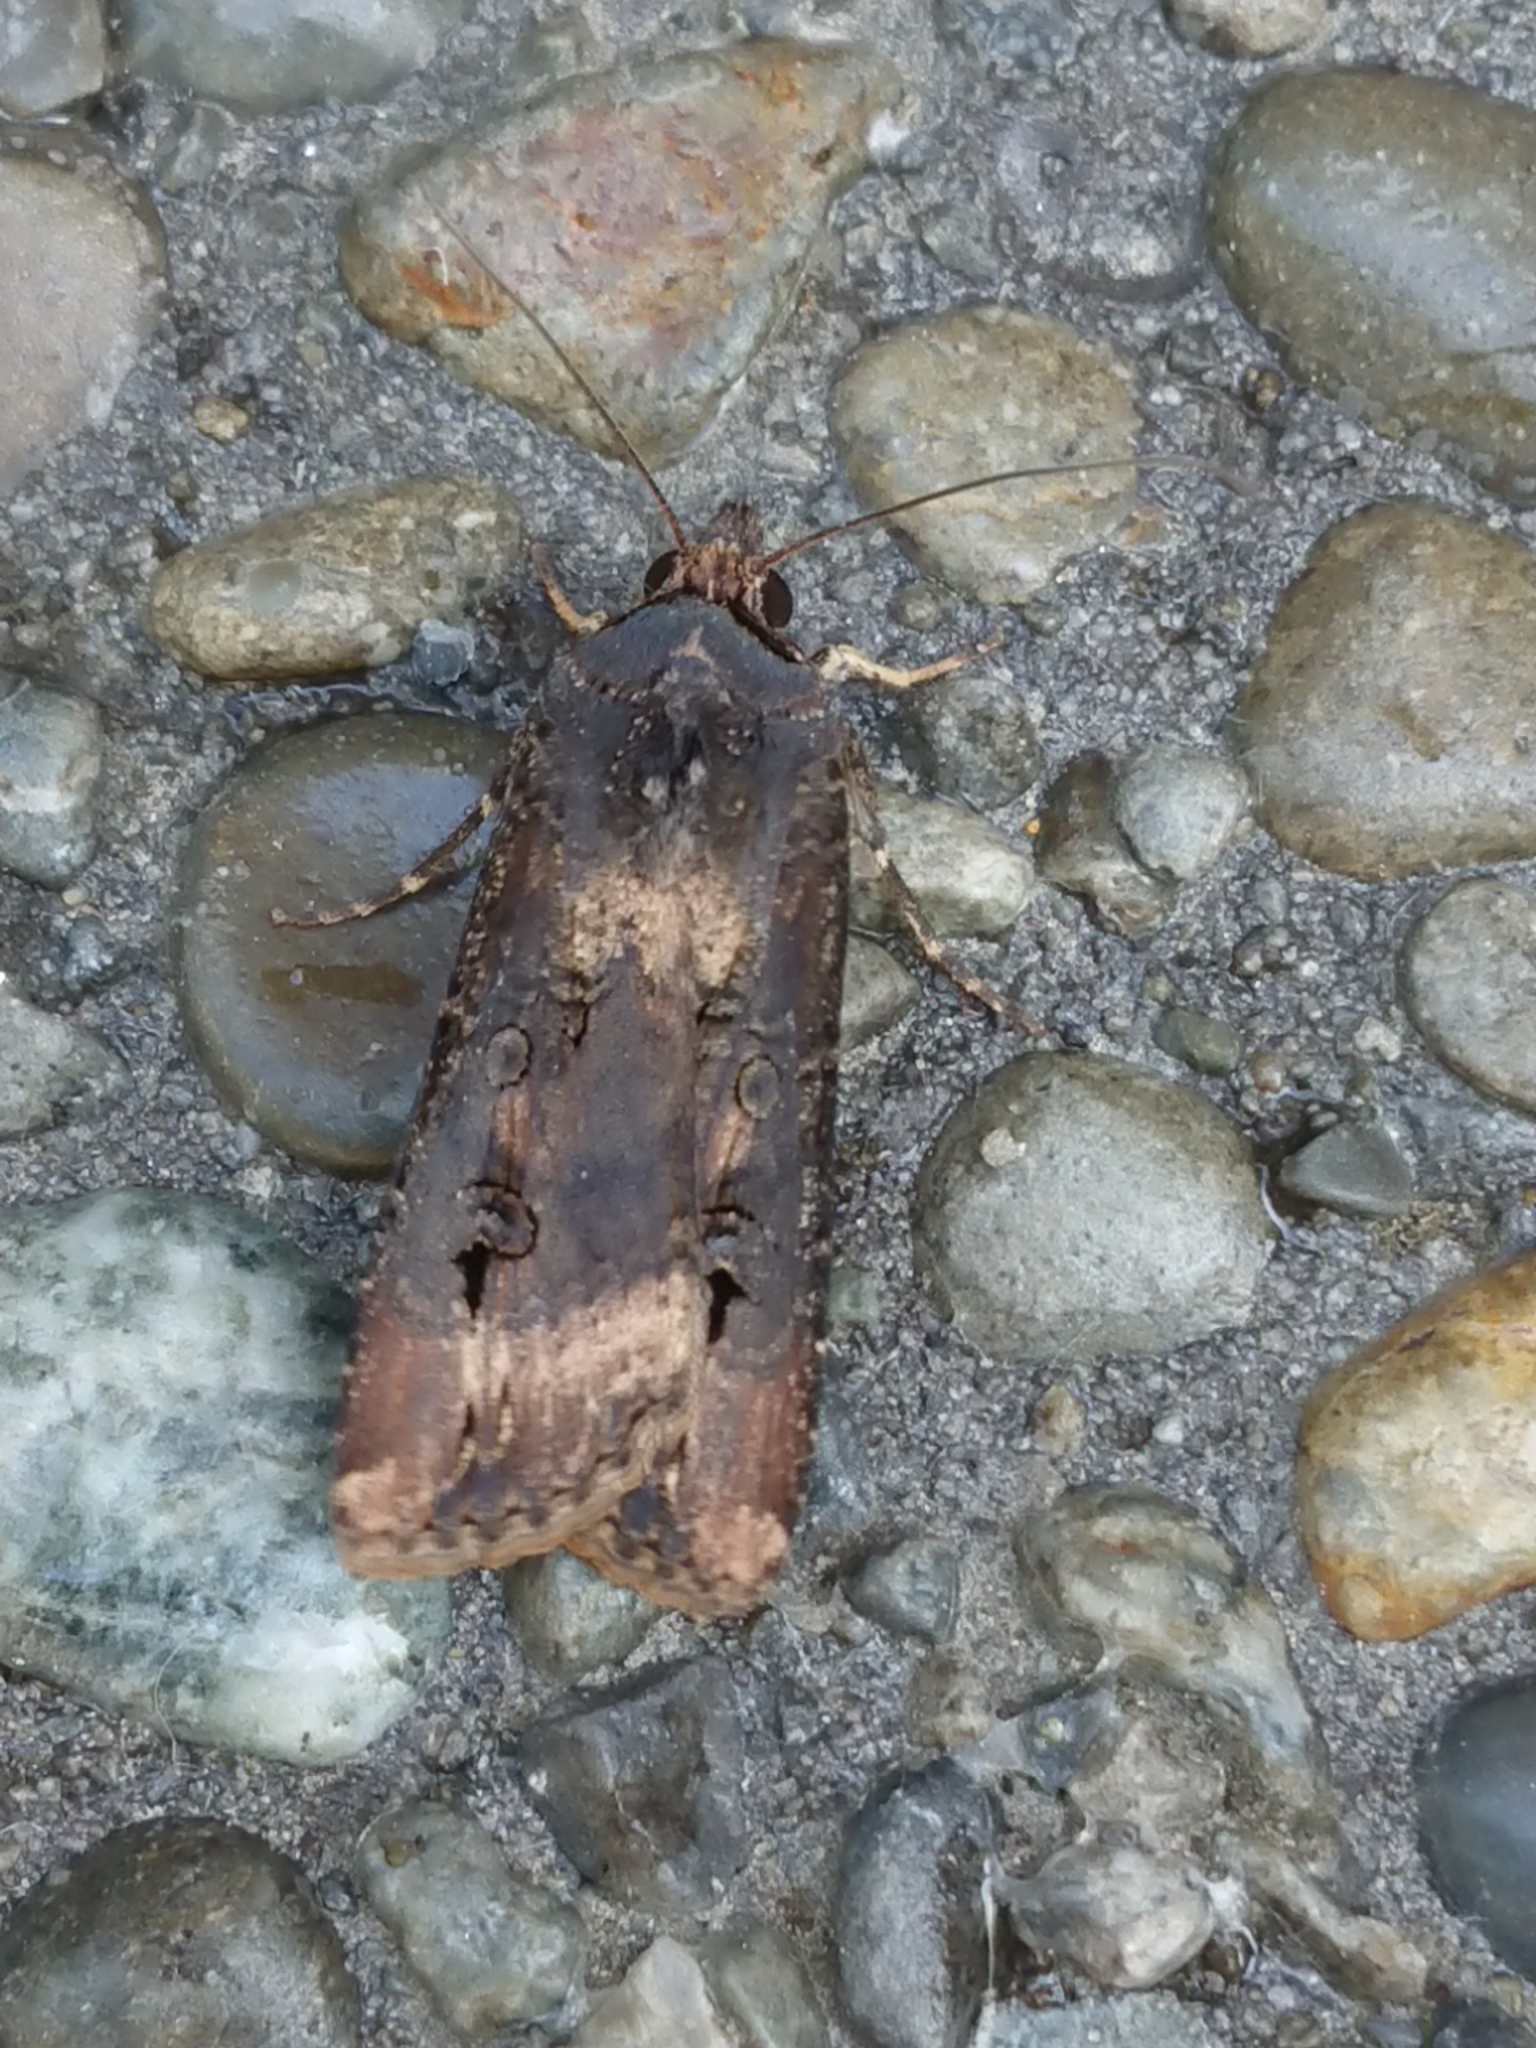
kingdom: Animalia
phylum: Arthropoda
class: Insecta
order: Lepidoptera
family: Noctuidae
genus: Agrotis
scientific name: Agrotis ipsilon
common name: Dark sword-grass
